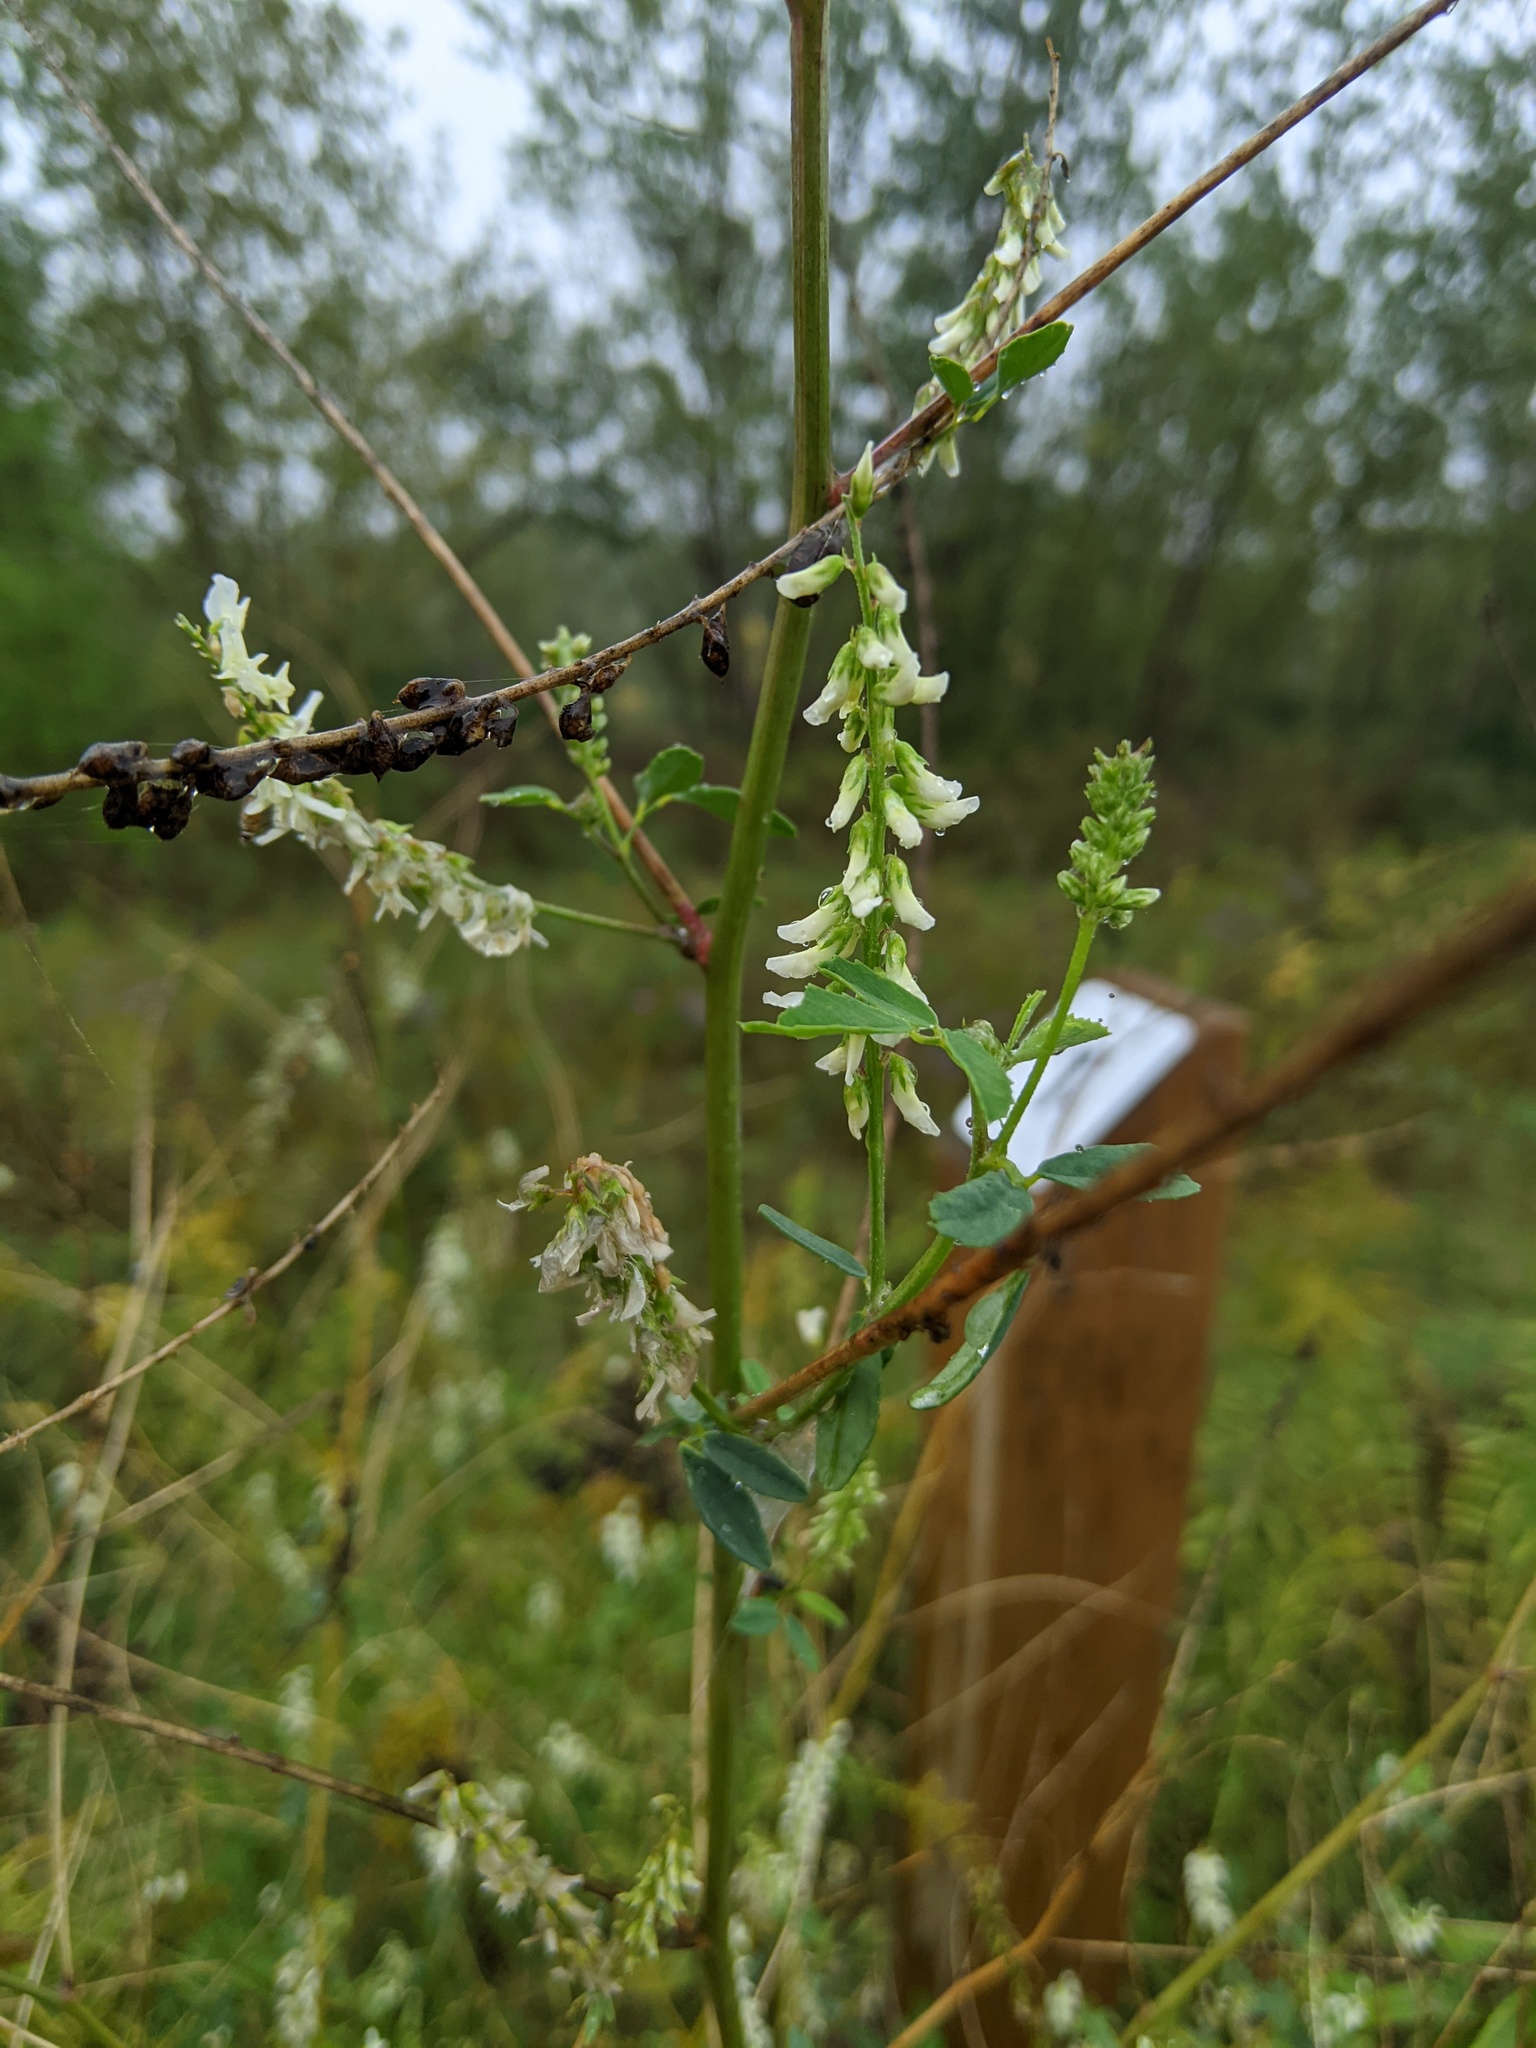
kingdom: Plantae
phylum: Tracheophyta
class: Magnoliopsida
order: Fabales
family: Fabaceae
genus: Melilotus
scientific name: Melilotus albus
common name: White melilot
